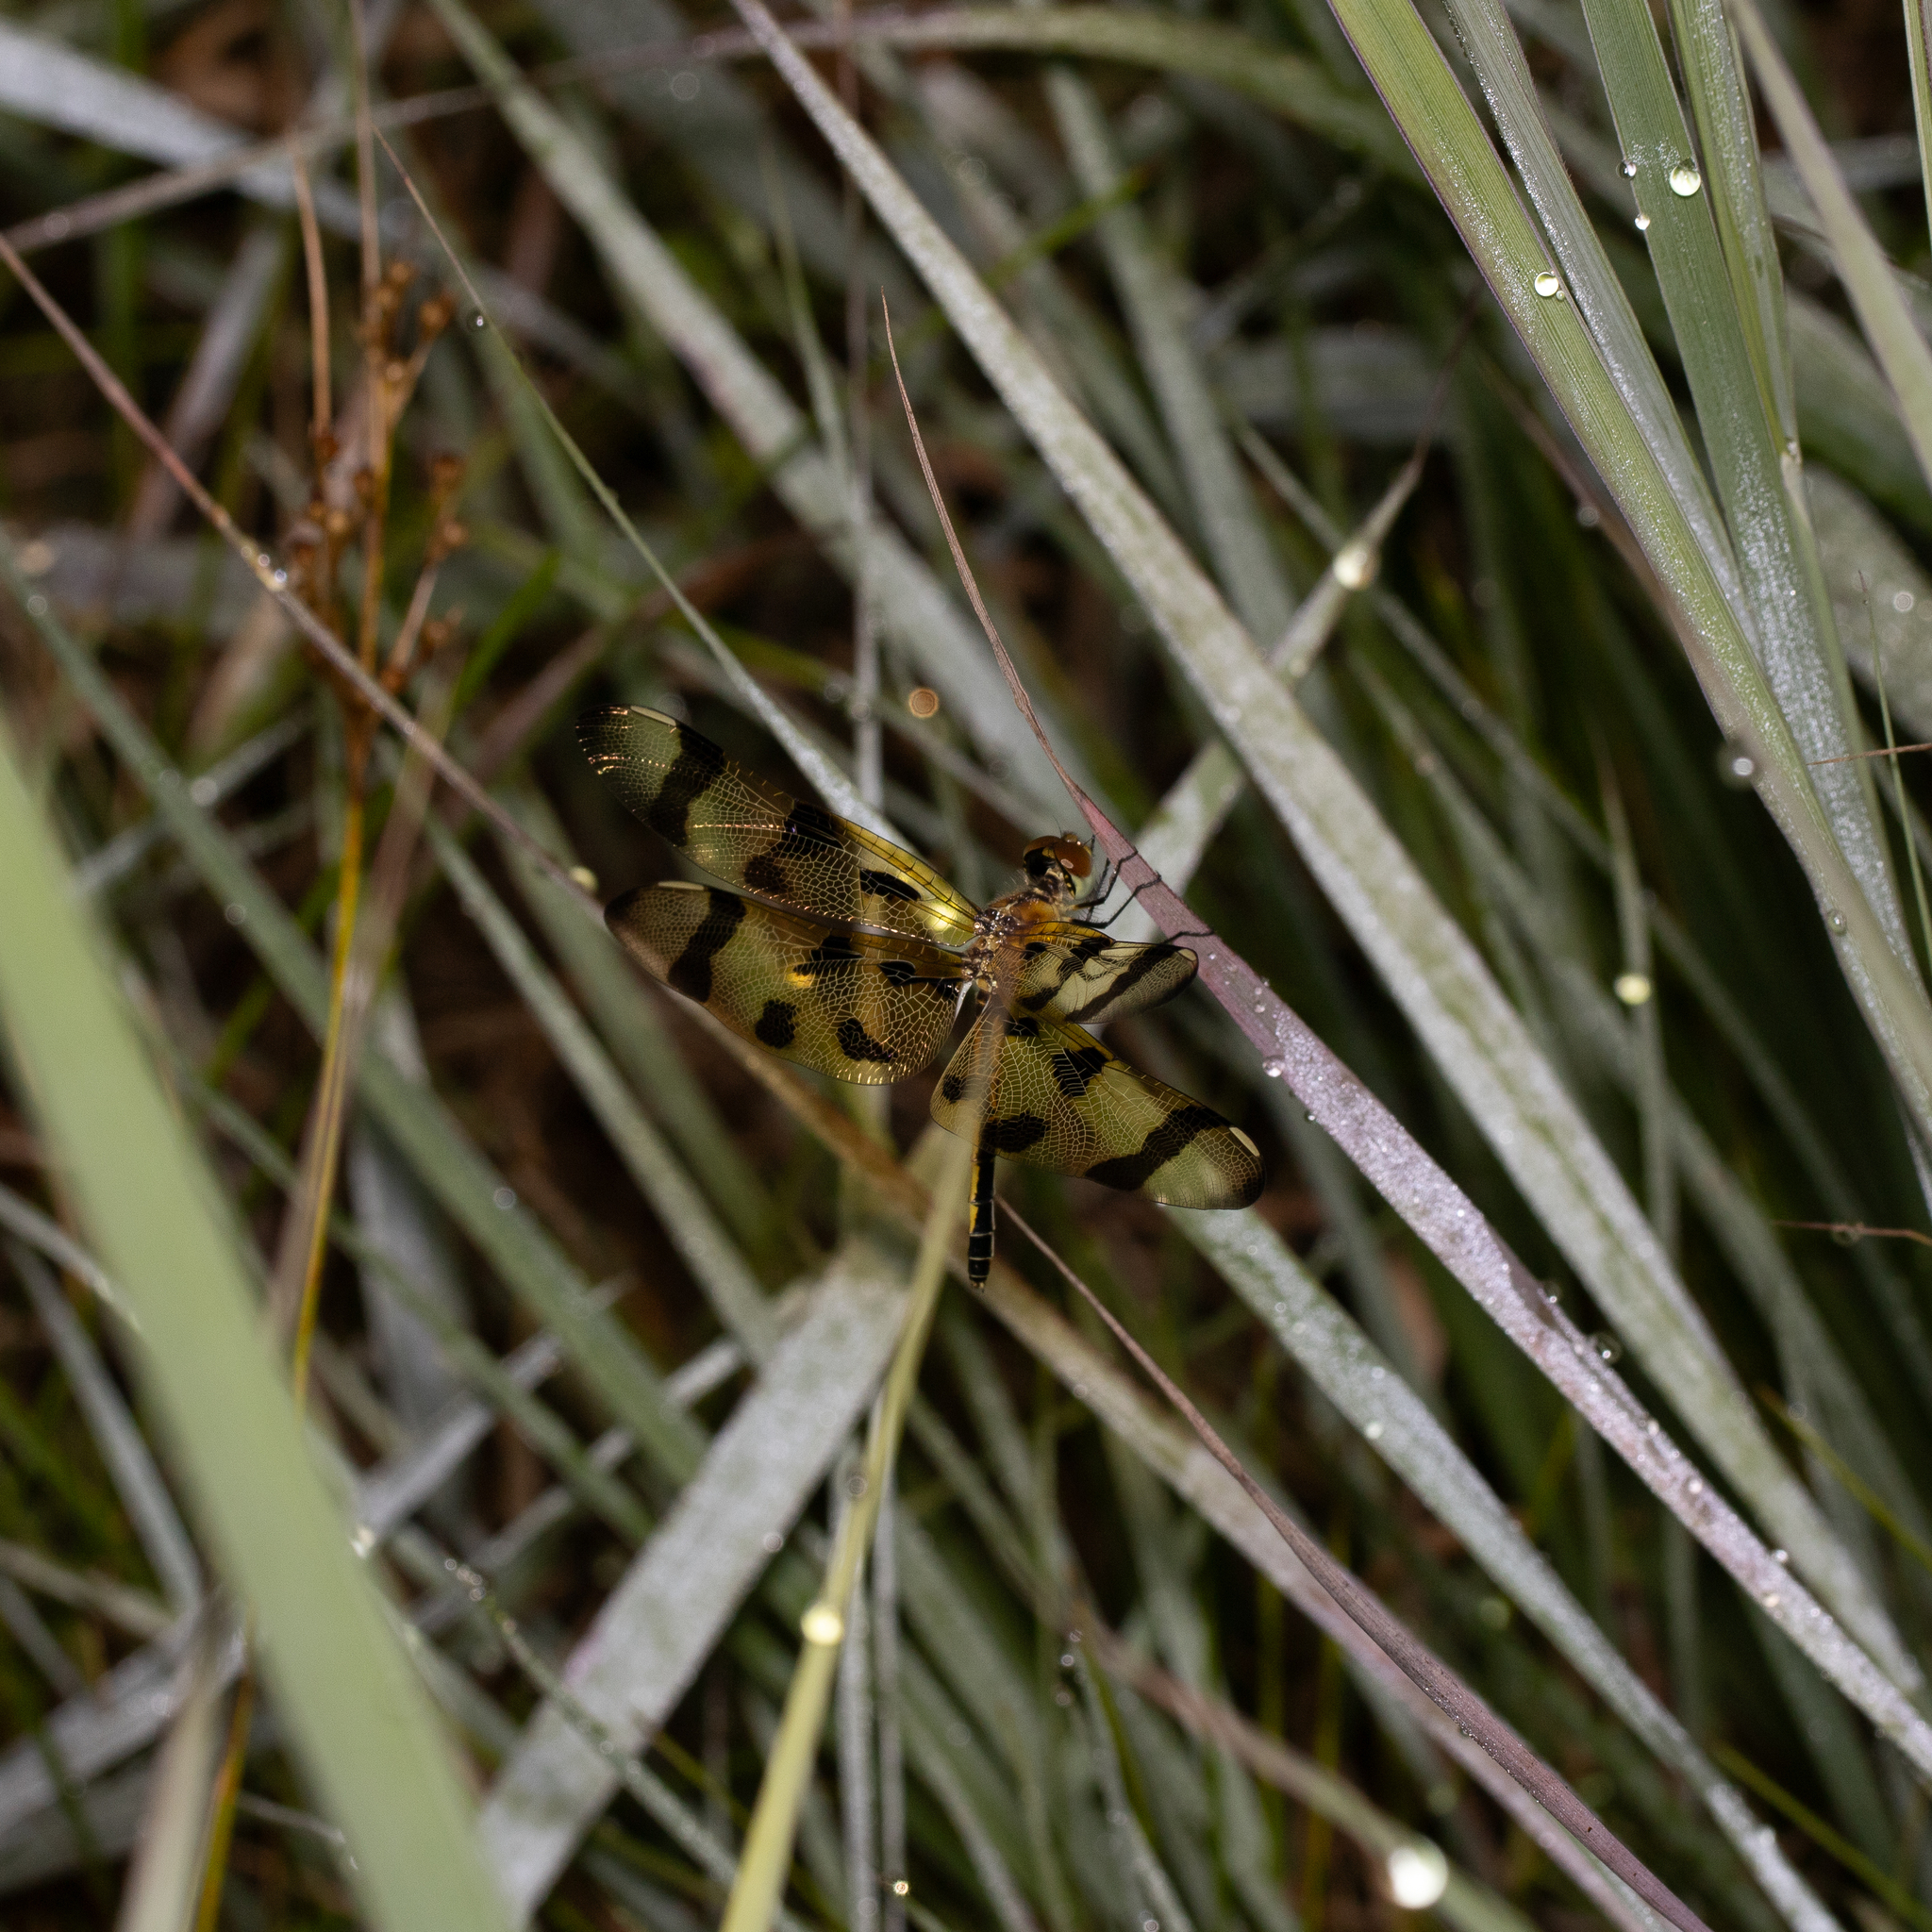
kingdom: Animalia
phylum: Arthropoda
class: Insecta
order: Odonata
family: Libellulidae
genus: Celithemis
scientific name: Celithemis eponina
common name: Halloween pennant
